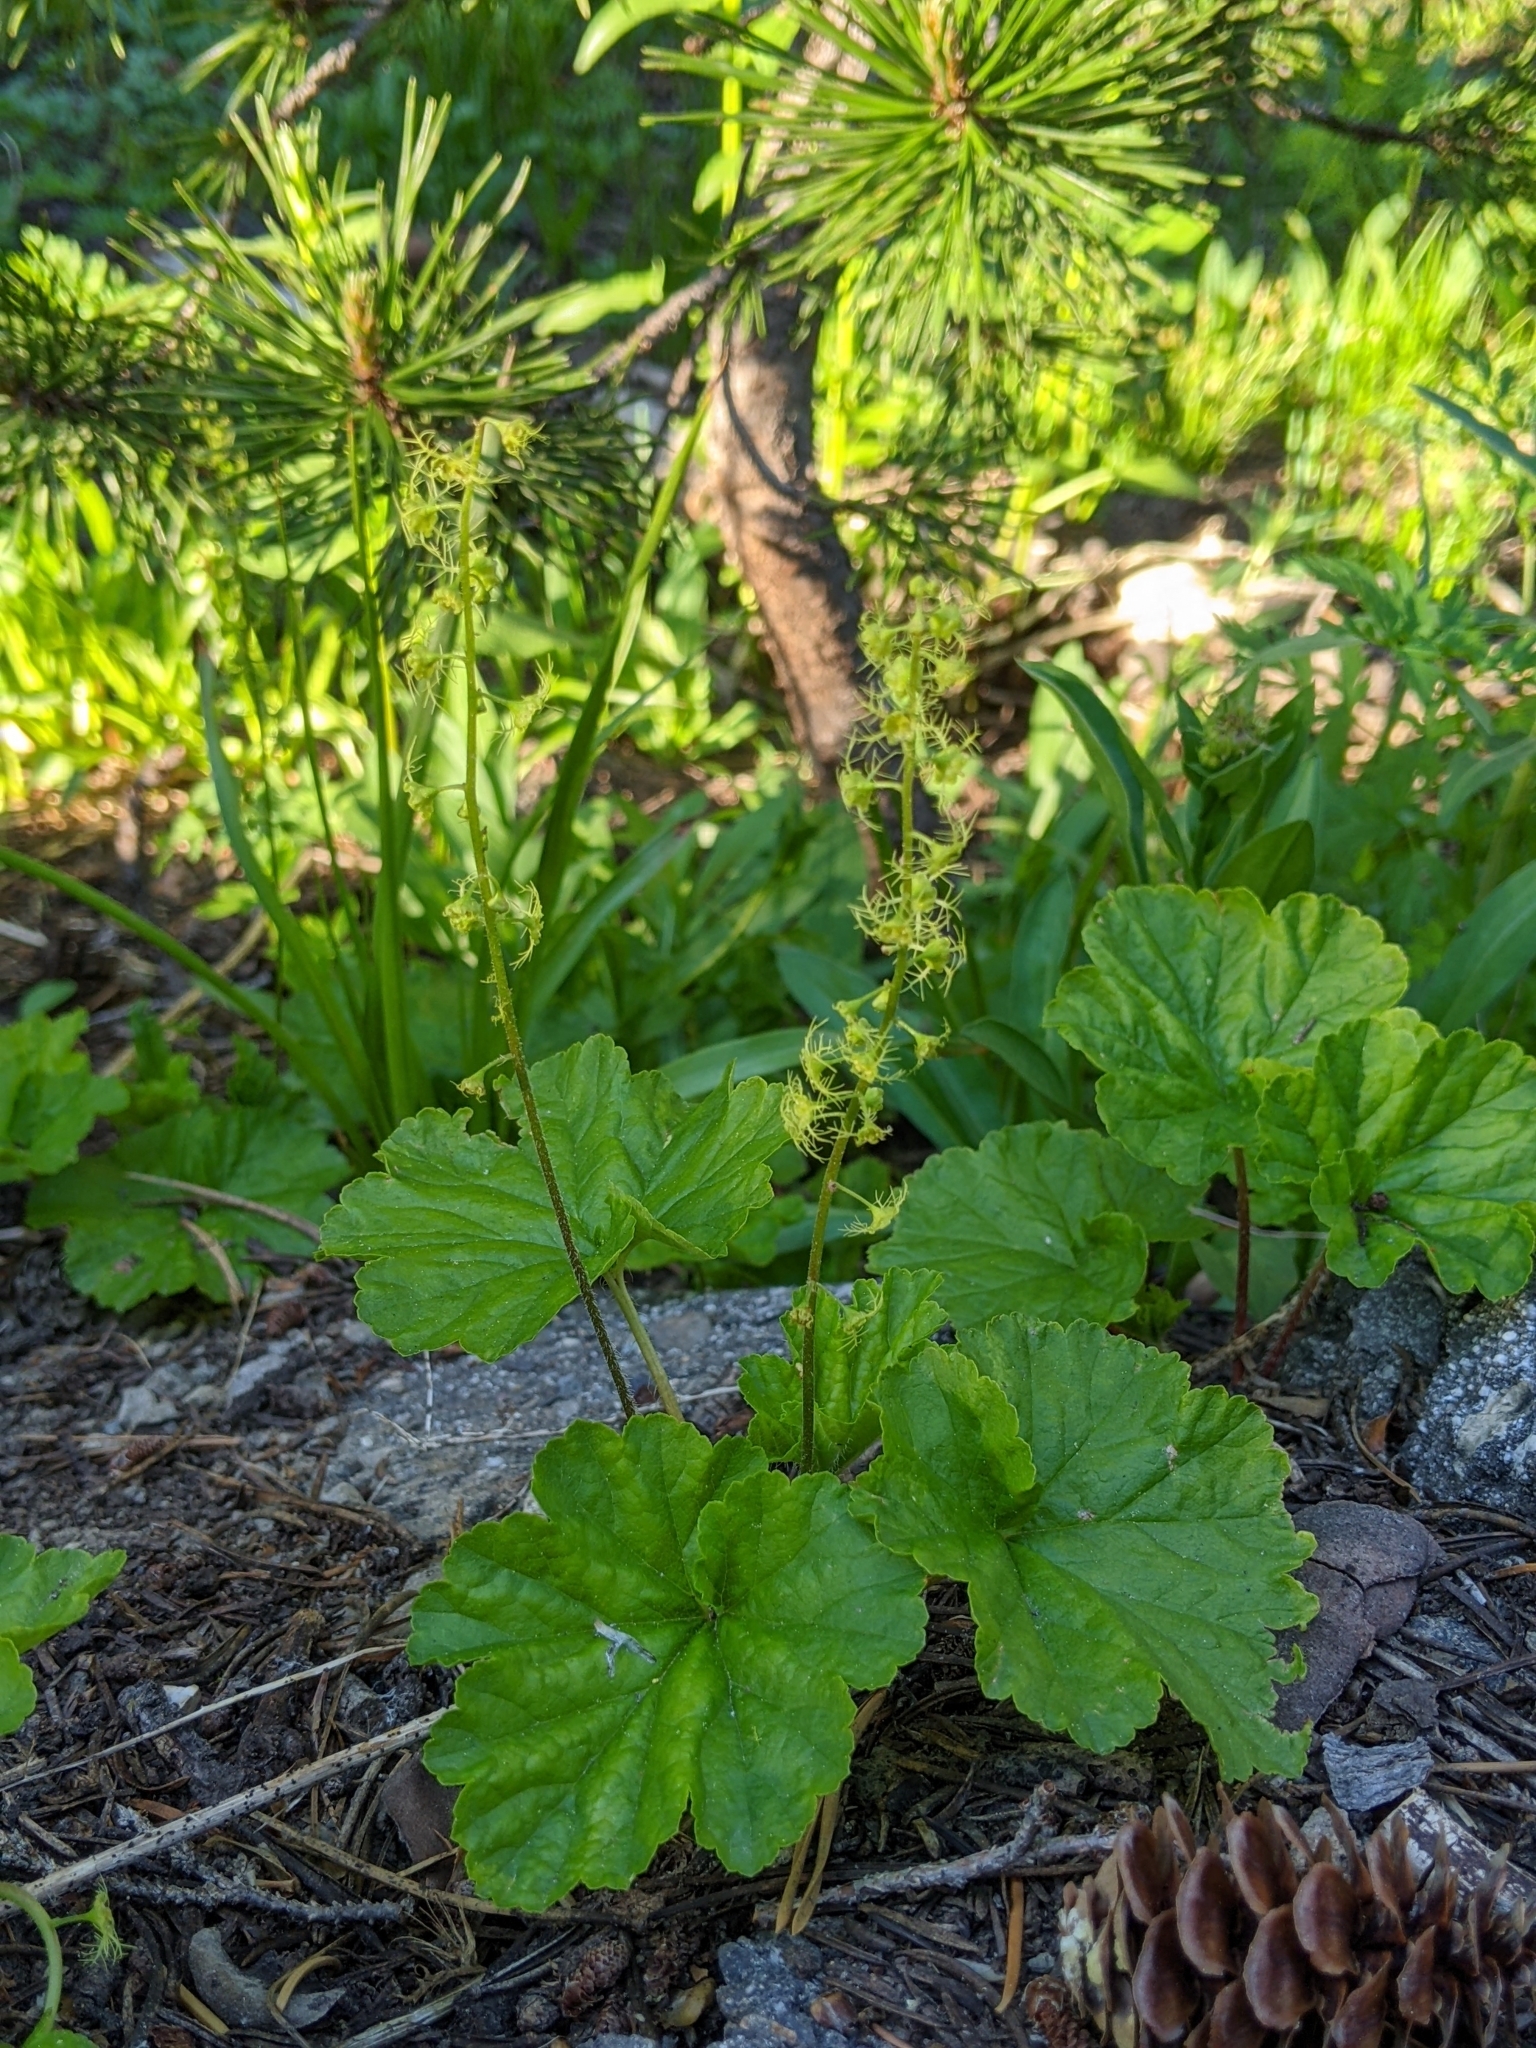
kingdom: Plantae
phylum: Tracheophyta
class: Magnoliopsida
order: Saxifragales
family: Saxifragaceae
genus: Brewerimitella
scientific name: Brewerimitella breweri
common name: Brewer's bishop's-cap
